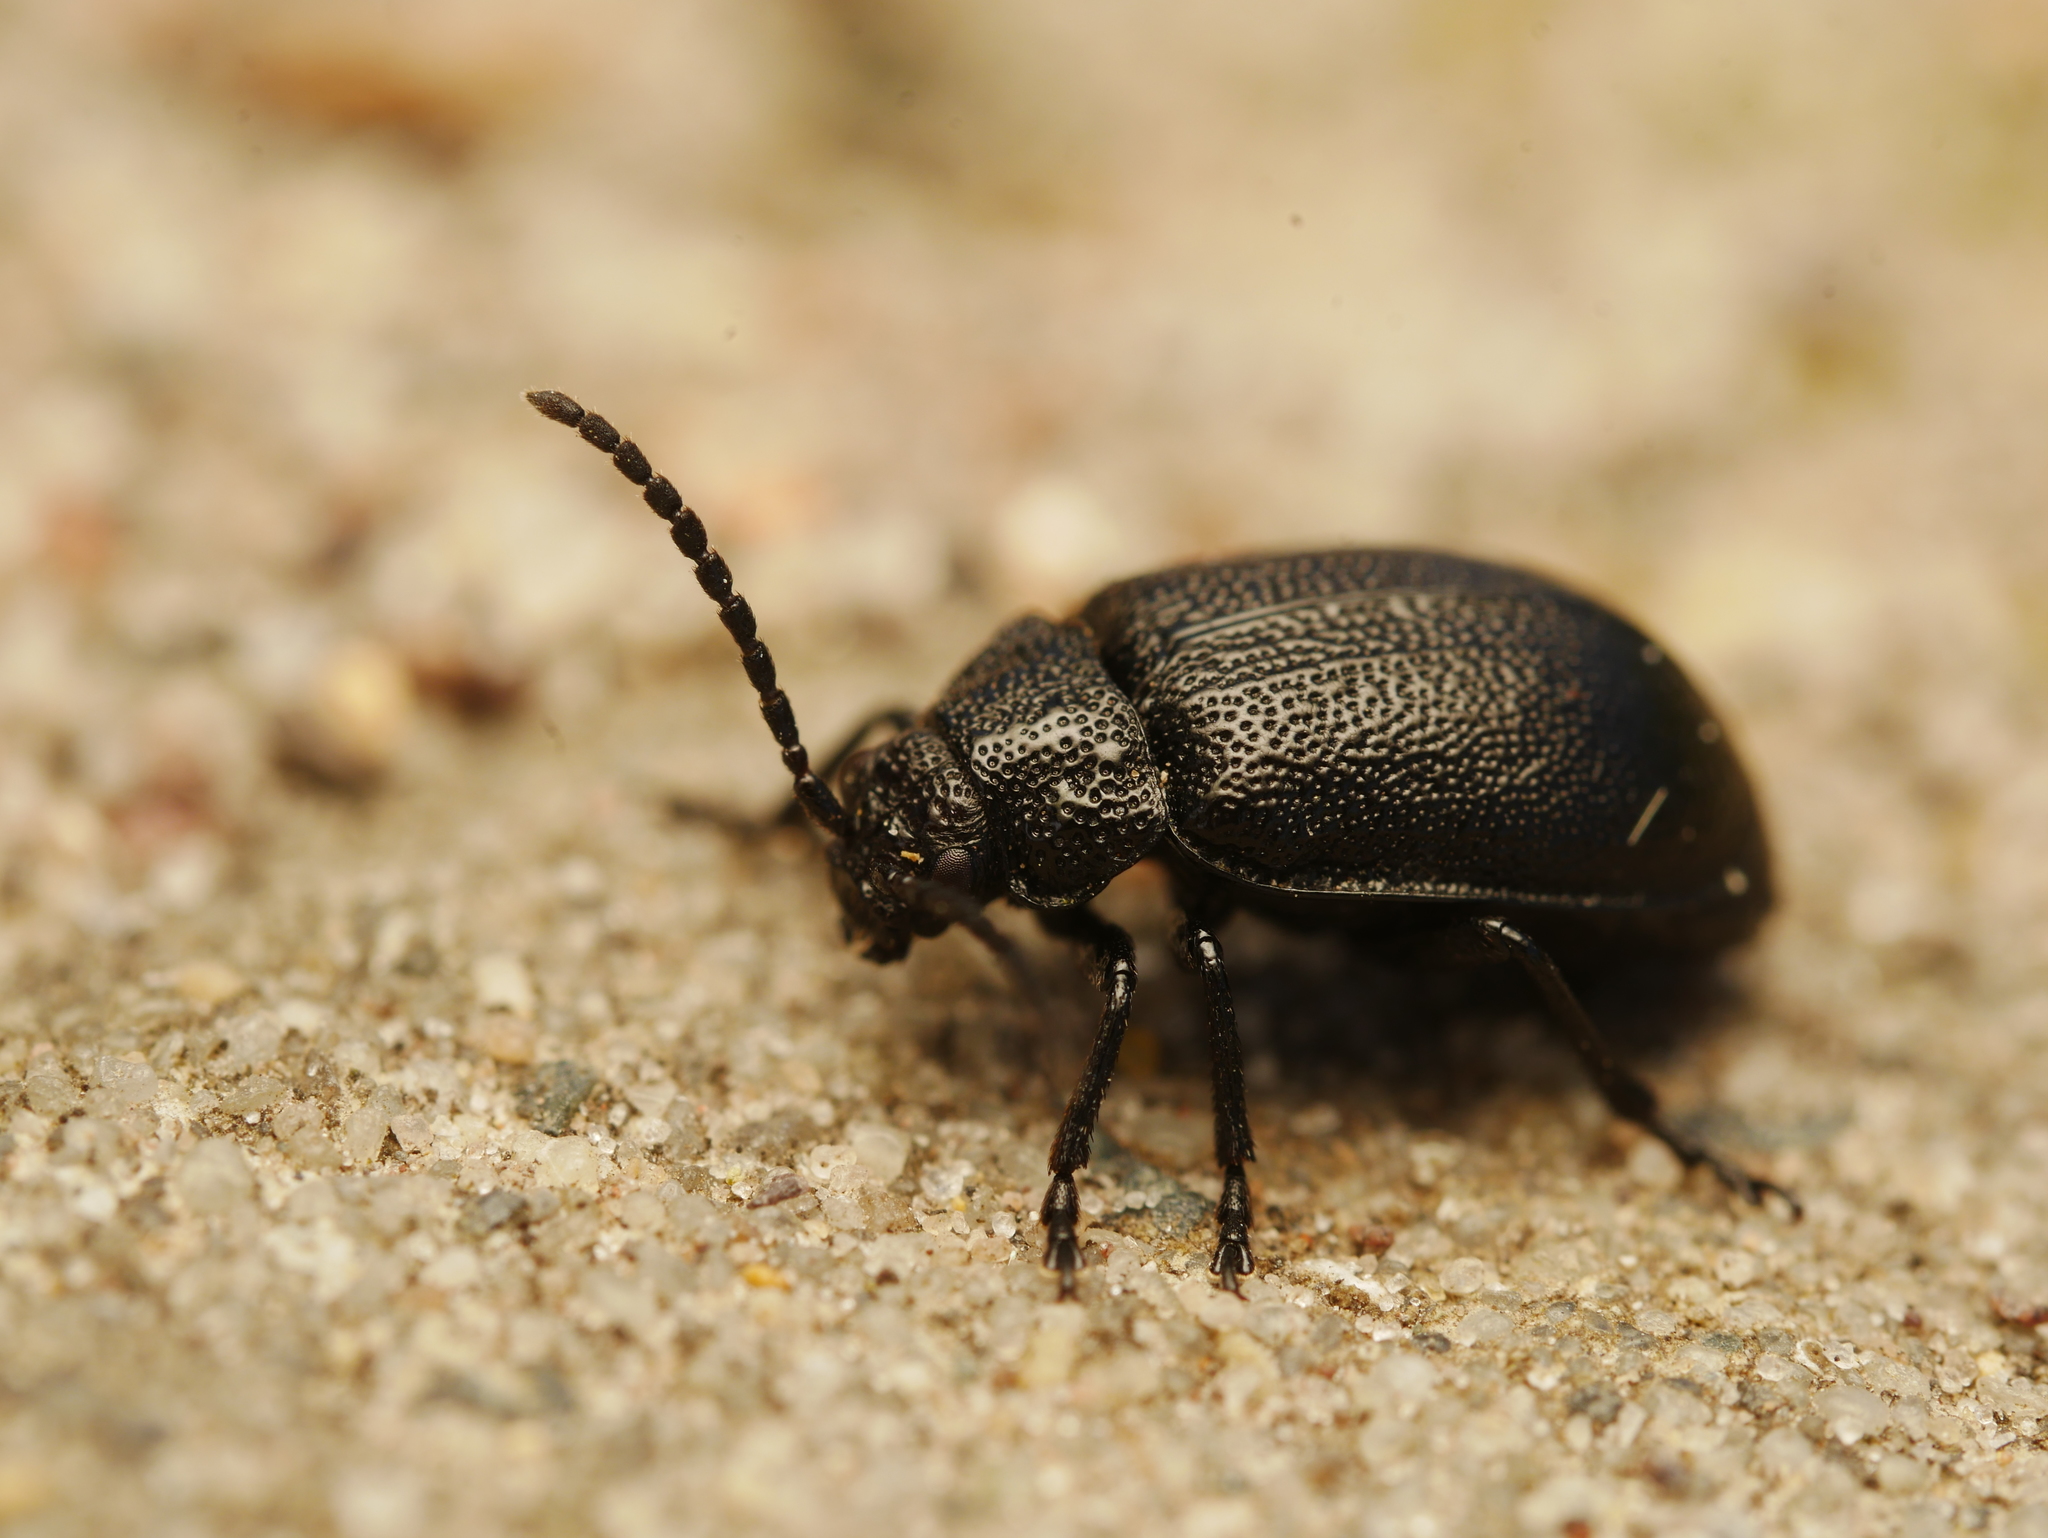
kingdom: Animalia
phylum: Arthropoda
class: Insecta
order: Coleoptera
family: Chrysomelidae
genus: Galeruca
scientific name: Galeruca tanaceti
